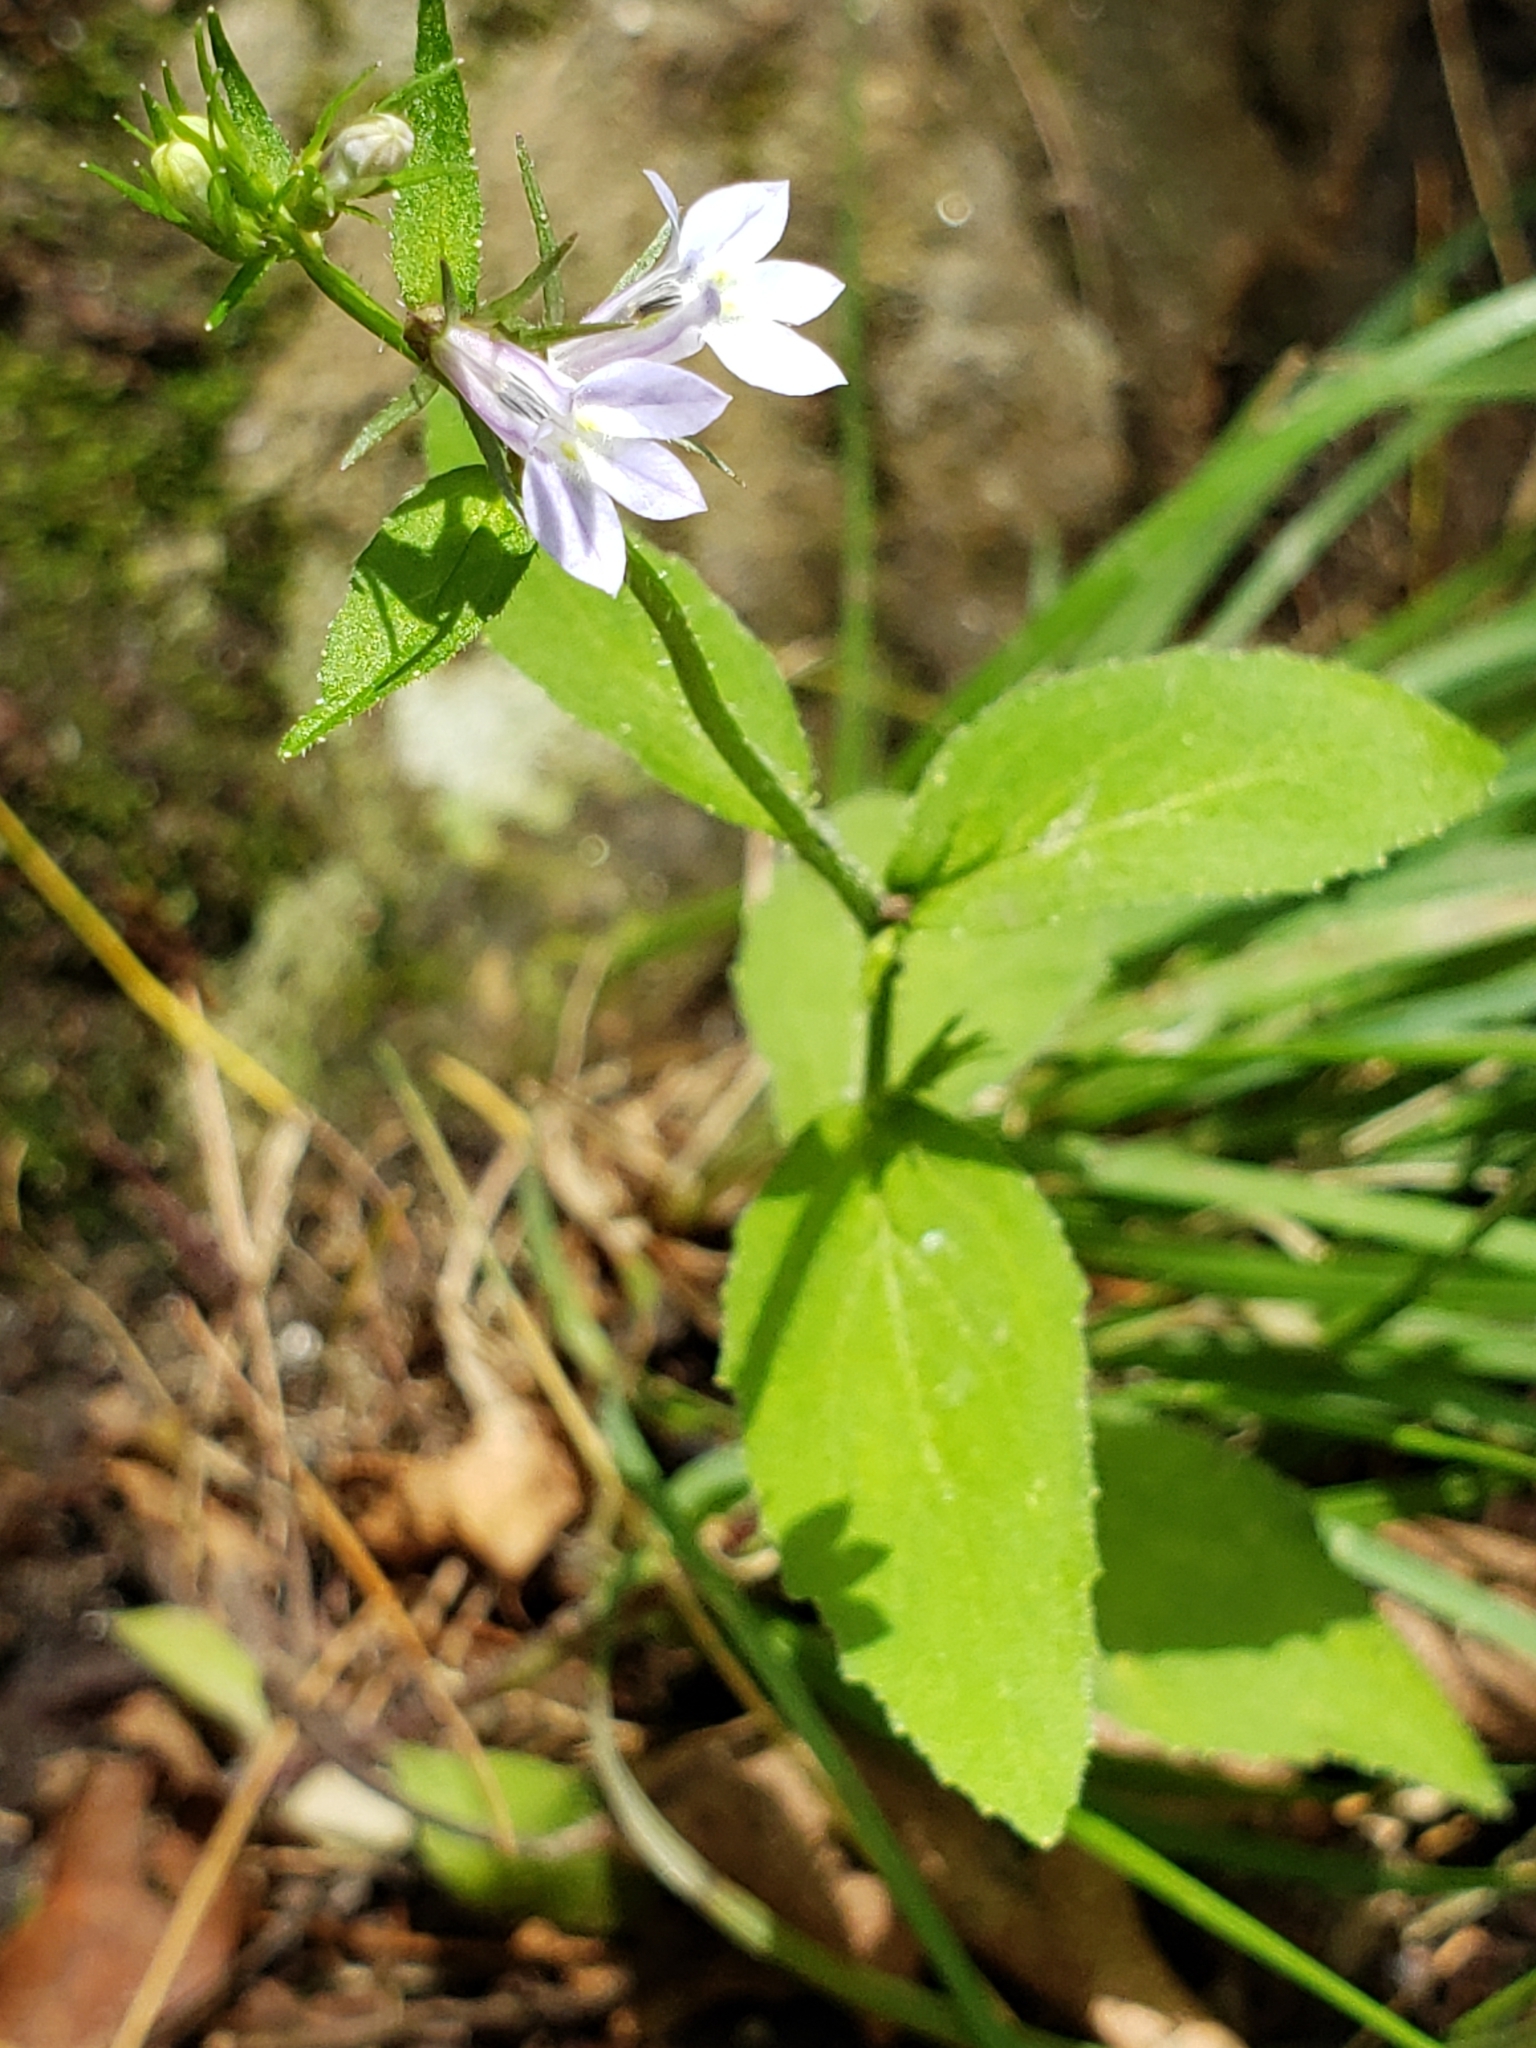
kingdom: Plantae
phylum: Tracheophyta
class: Magnoliopsida
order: Asterales
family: Campanulaceae
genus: Lobelia
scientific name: Lobelia inflata
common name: Indian tobacco
